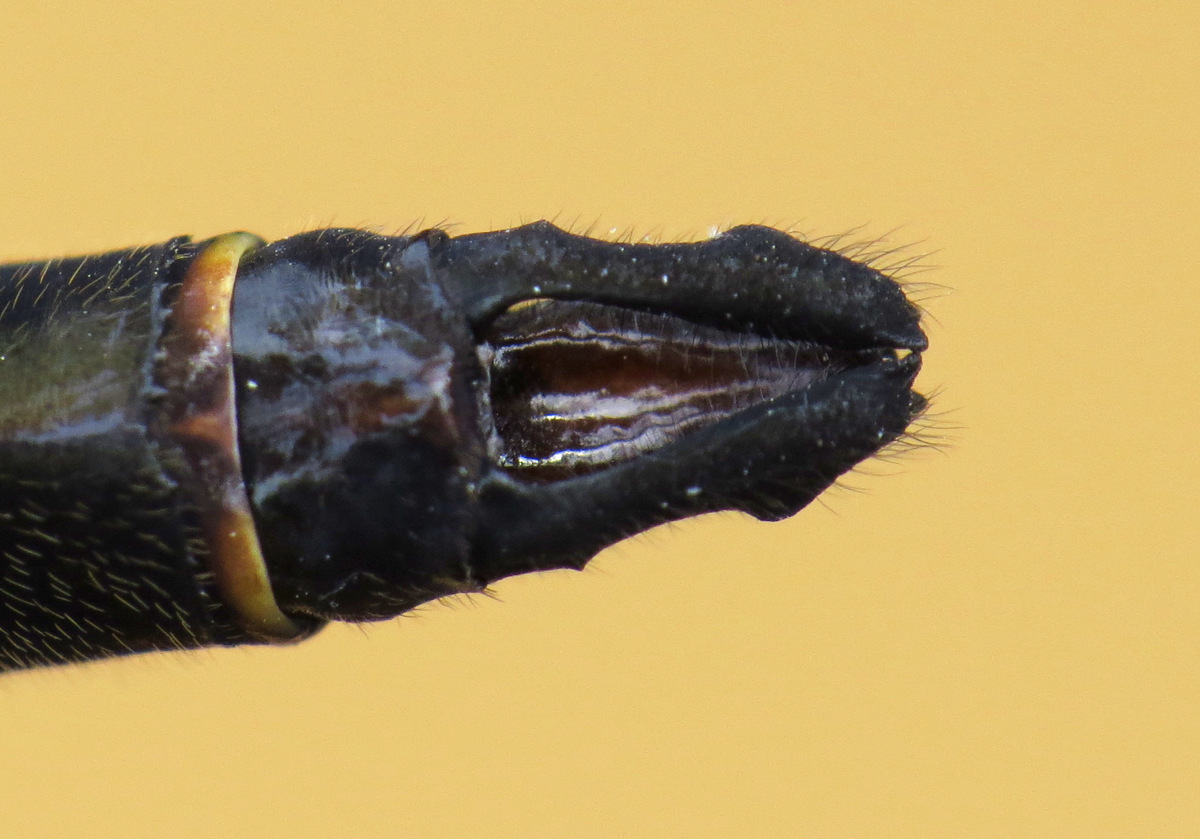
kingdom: Animalia
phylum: Arthropoda
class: Insecta
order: Odonata
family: Corduliidae
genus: Somatochlora
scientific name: Somatochlora linearis
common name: Mocha emerald
